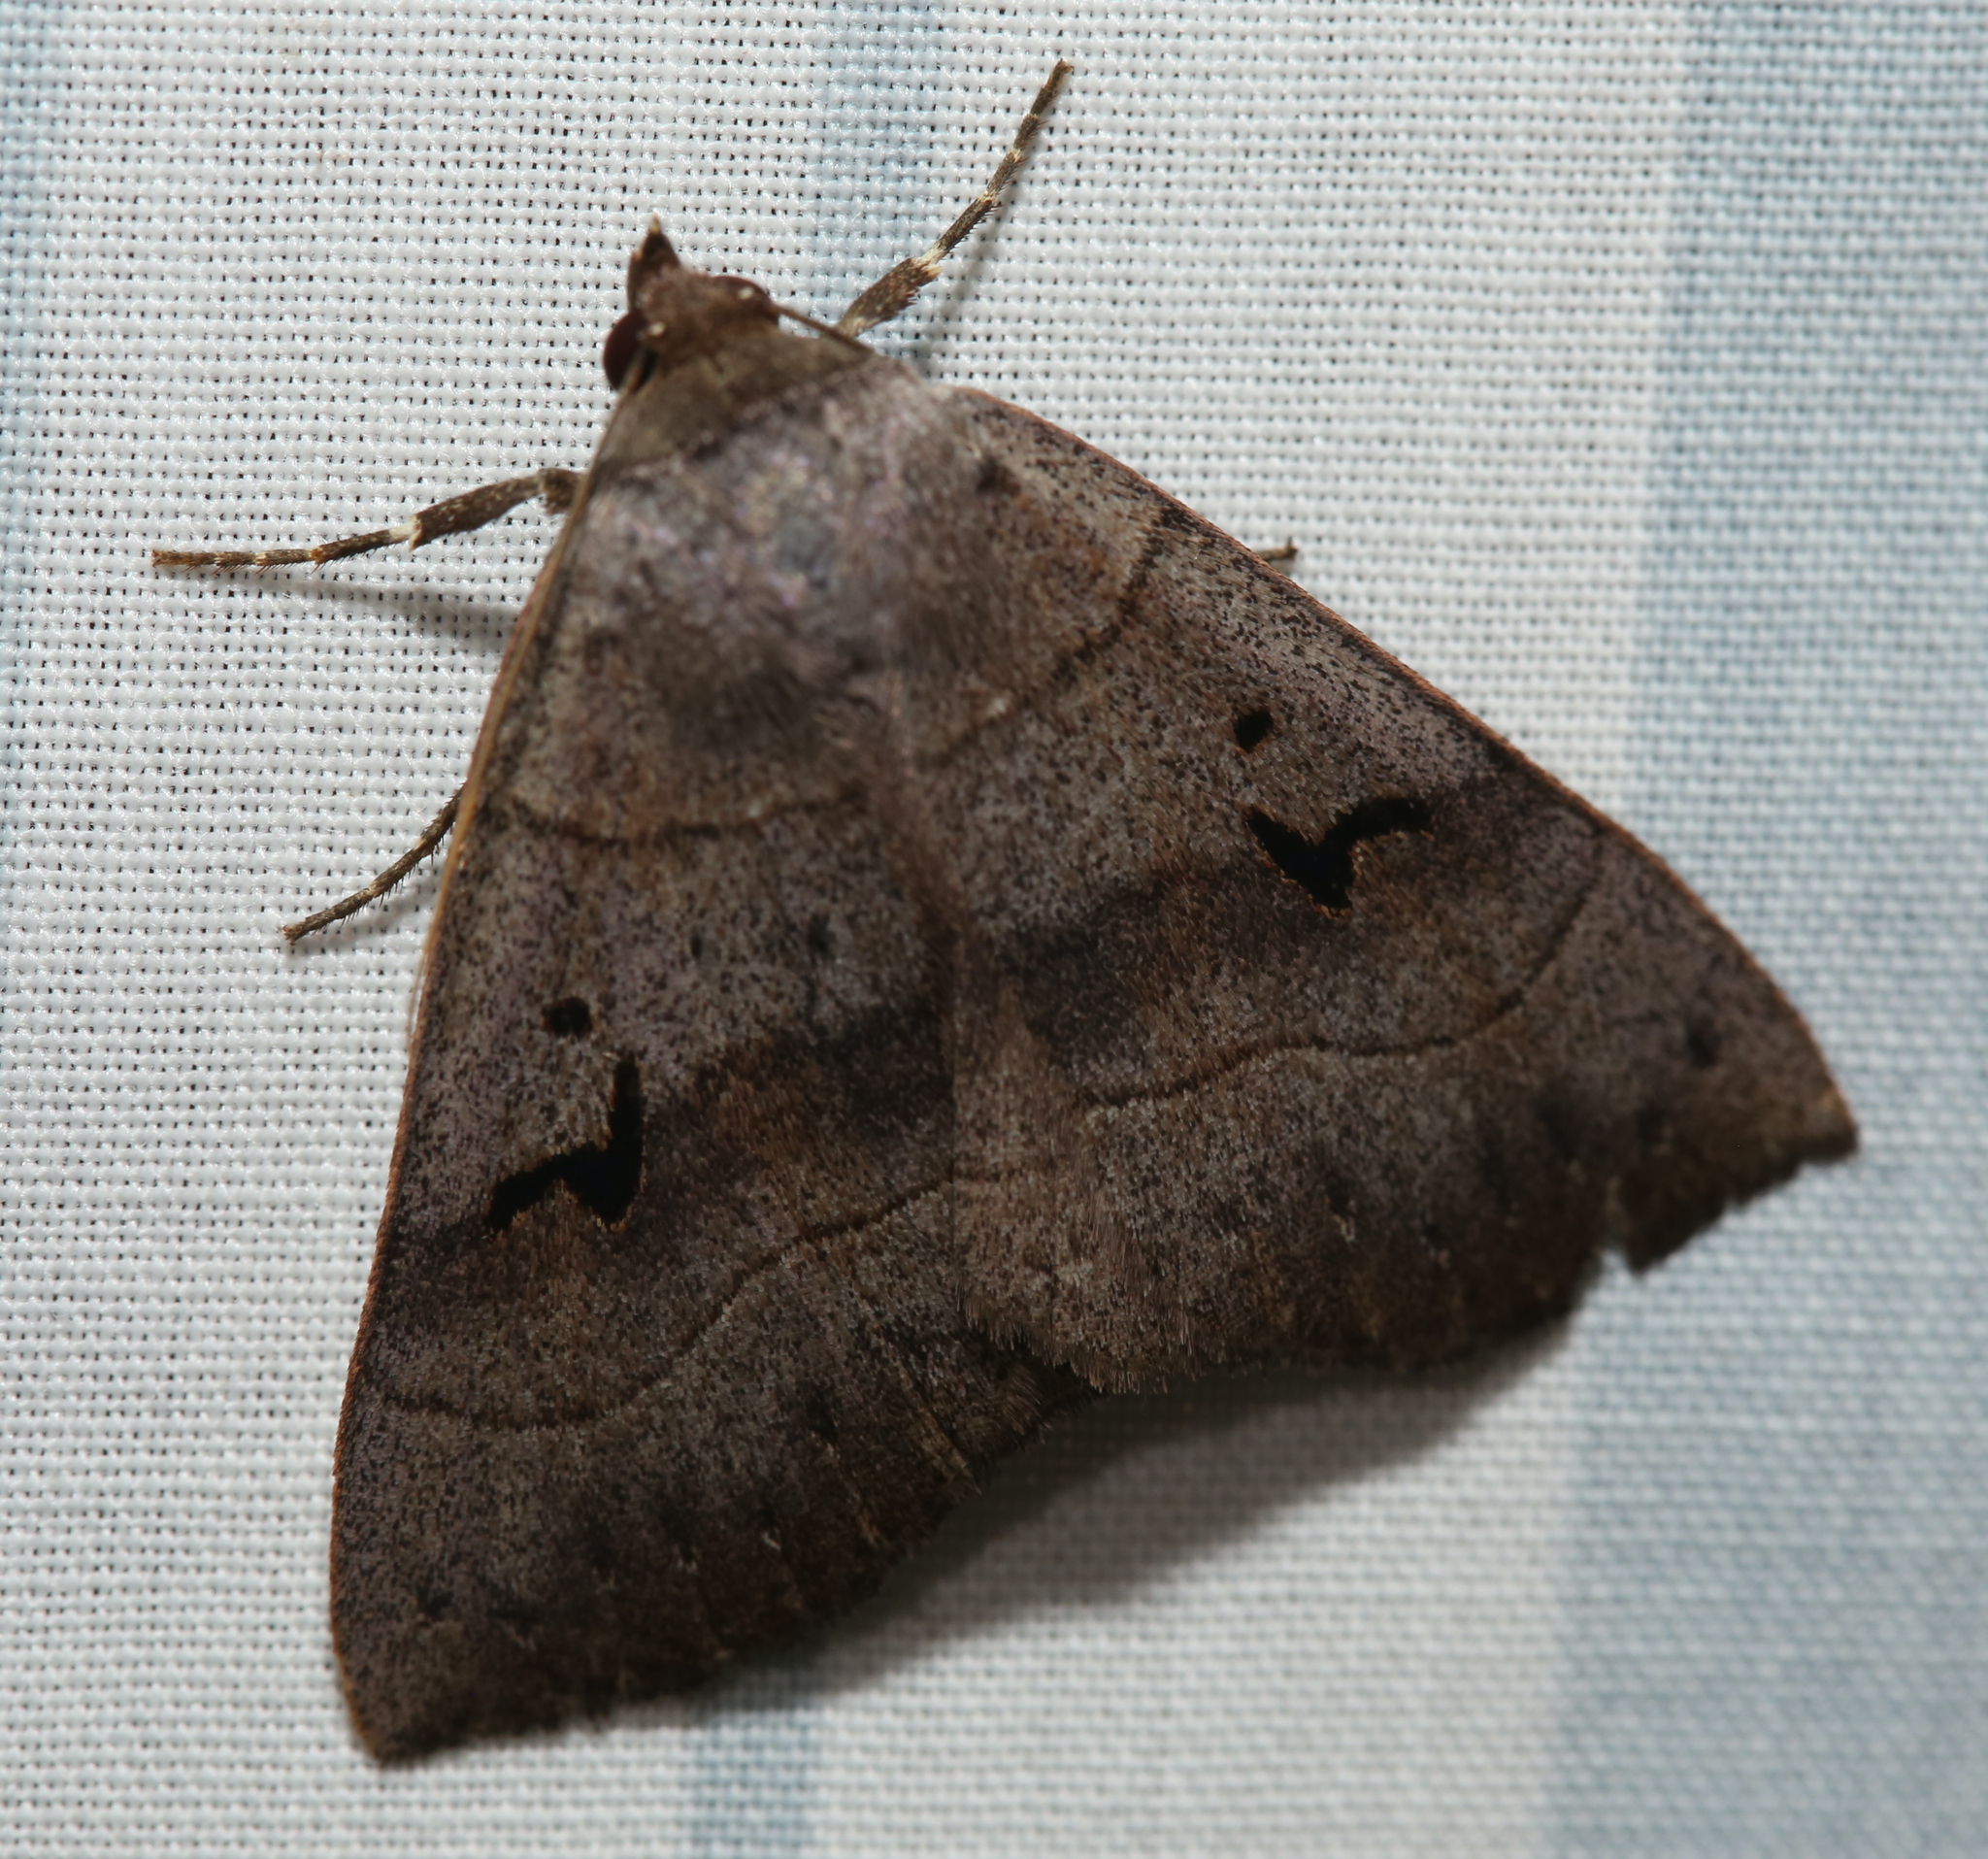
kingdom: Animalia
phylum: Arthropoda
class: Insecta
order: Lepidoptera
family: Erebidae
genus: Panopoda
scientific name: Panopoda carneicosta
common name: Brown panopoda moth
